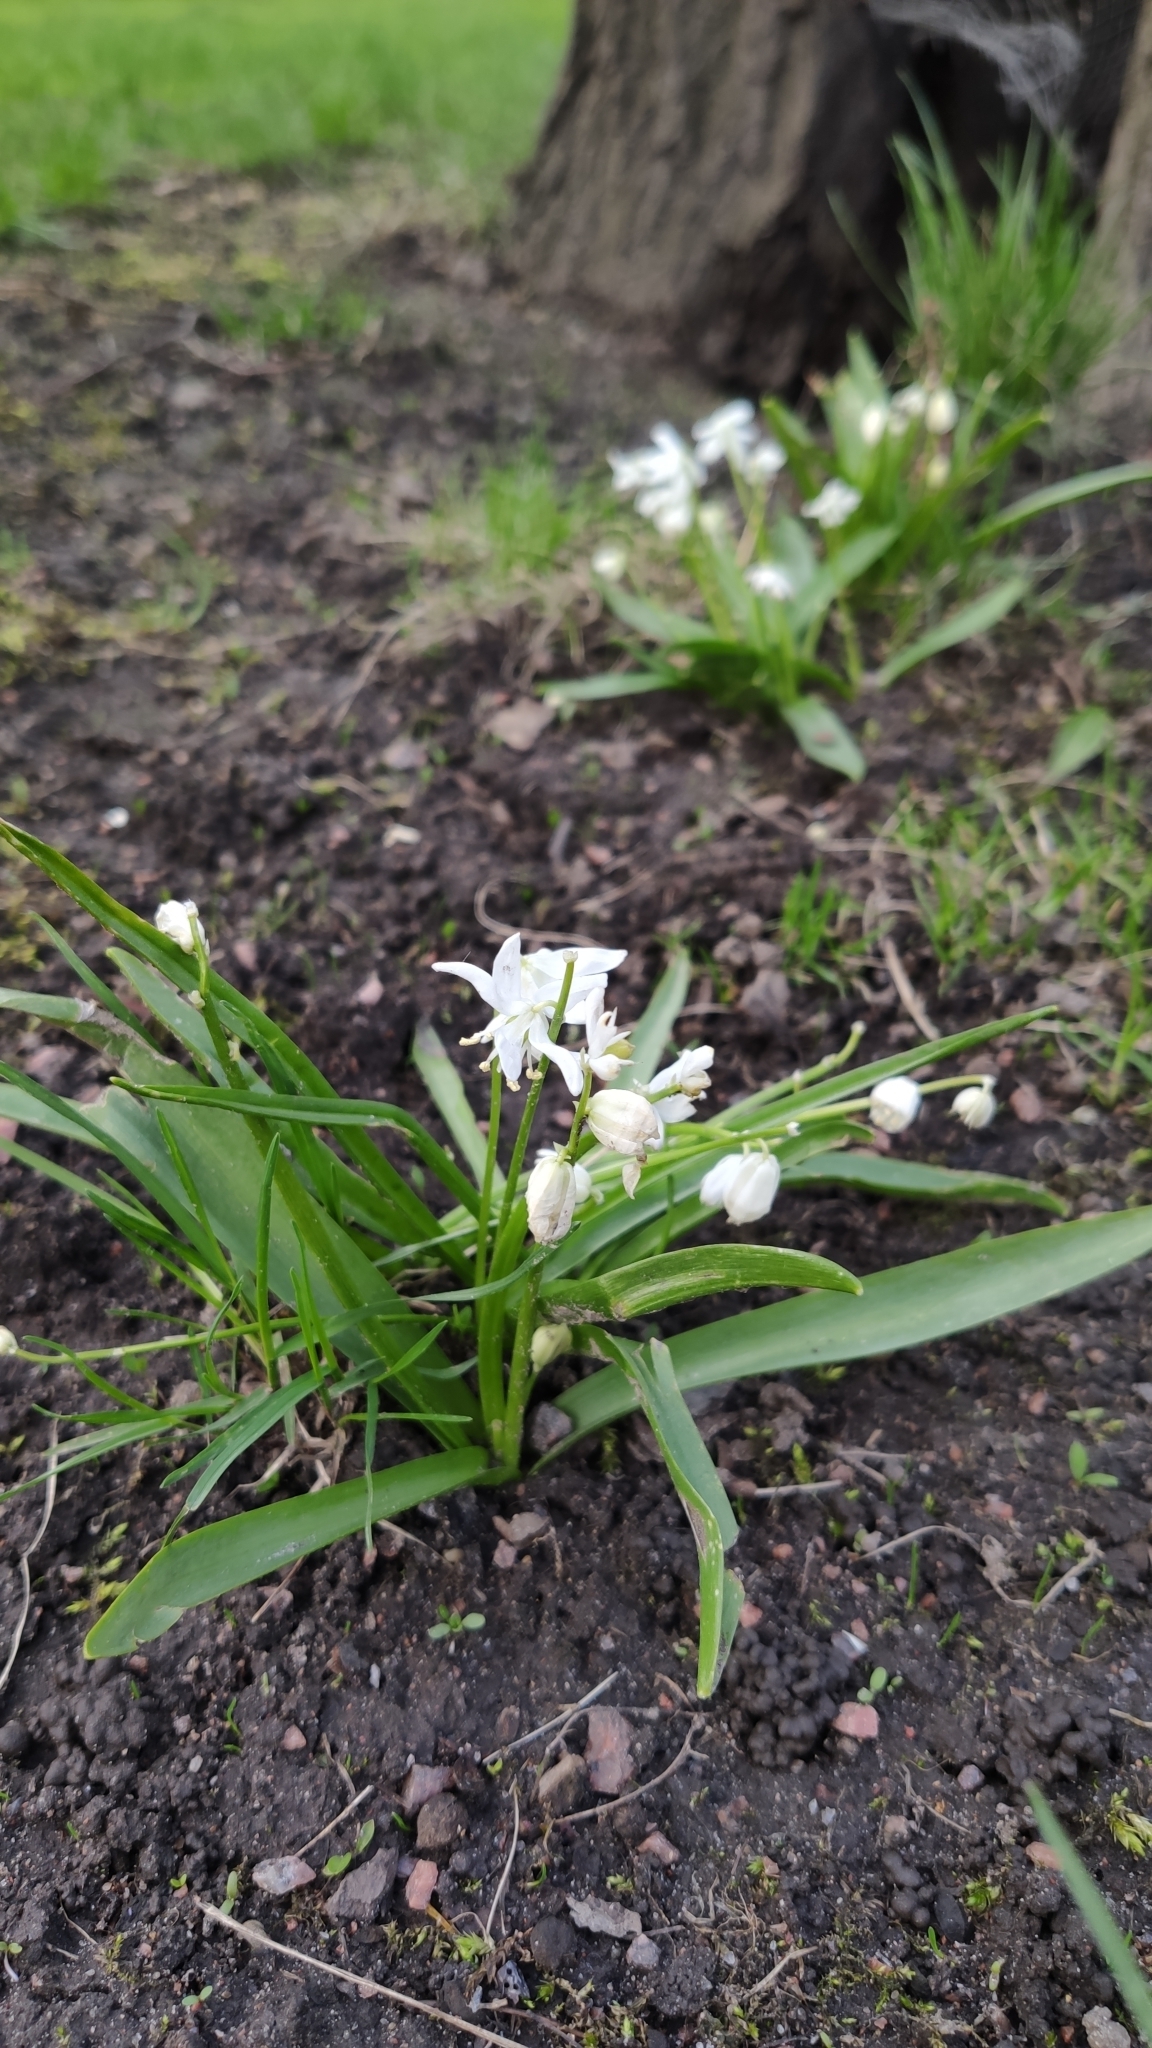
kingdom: Plantae
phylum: Tracheophyta
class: Liliopsida
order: Asparagales
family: Asparagaceae
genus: Scilla
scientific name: Scilla siberica
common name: Siberian squill
